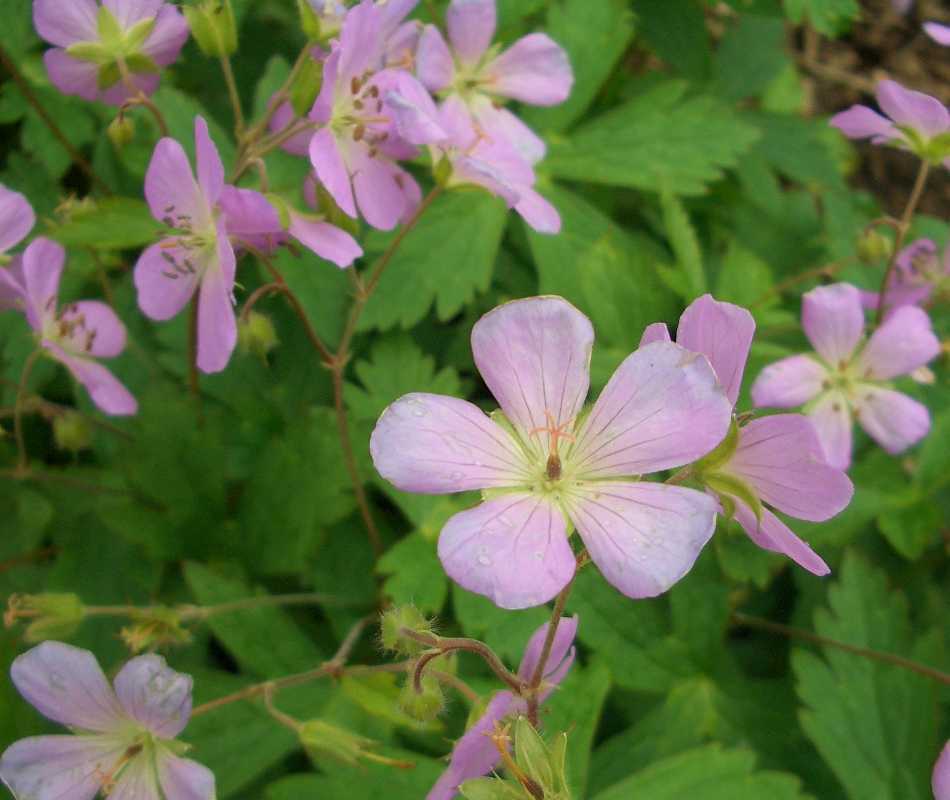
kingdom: Plantae
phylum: Tracheophyta
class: Magnoliopsida
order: Geraniales
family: Geraniaceae
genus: Geranium
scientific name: Geranium maculatum
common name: Spotted geranium
